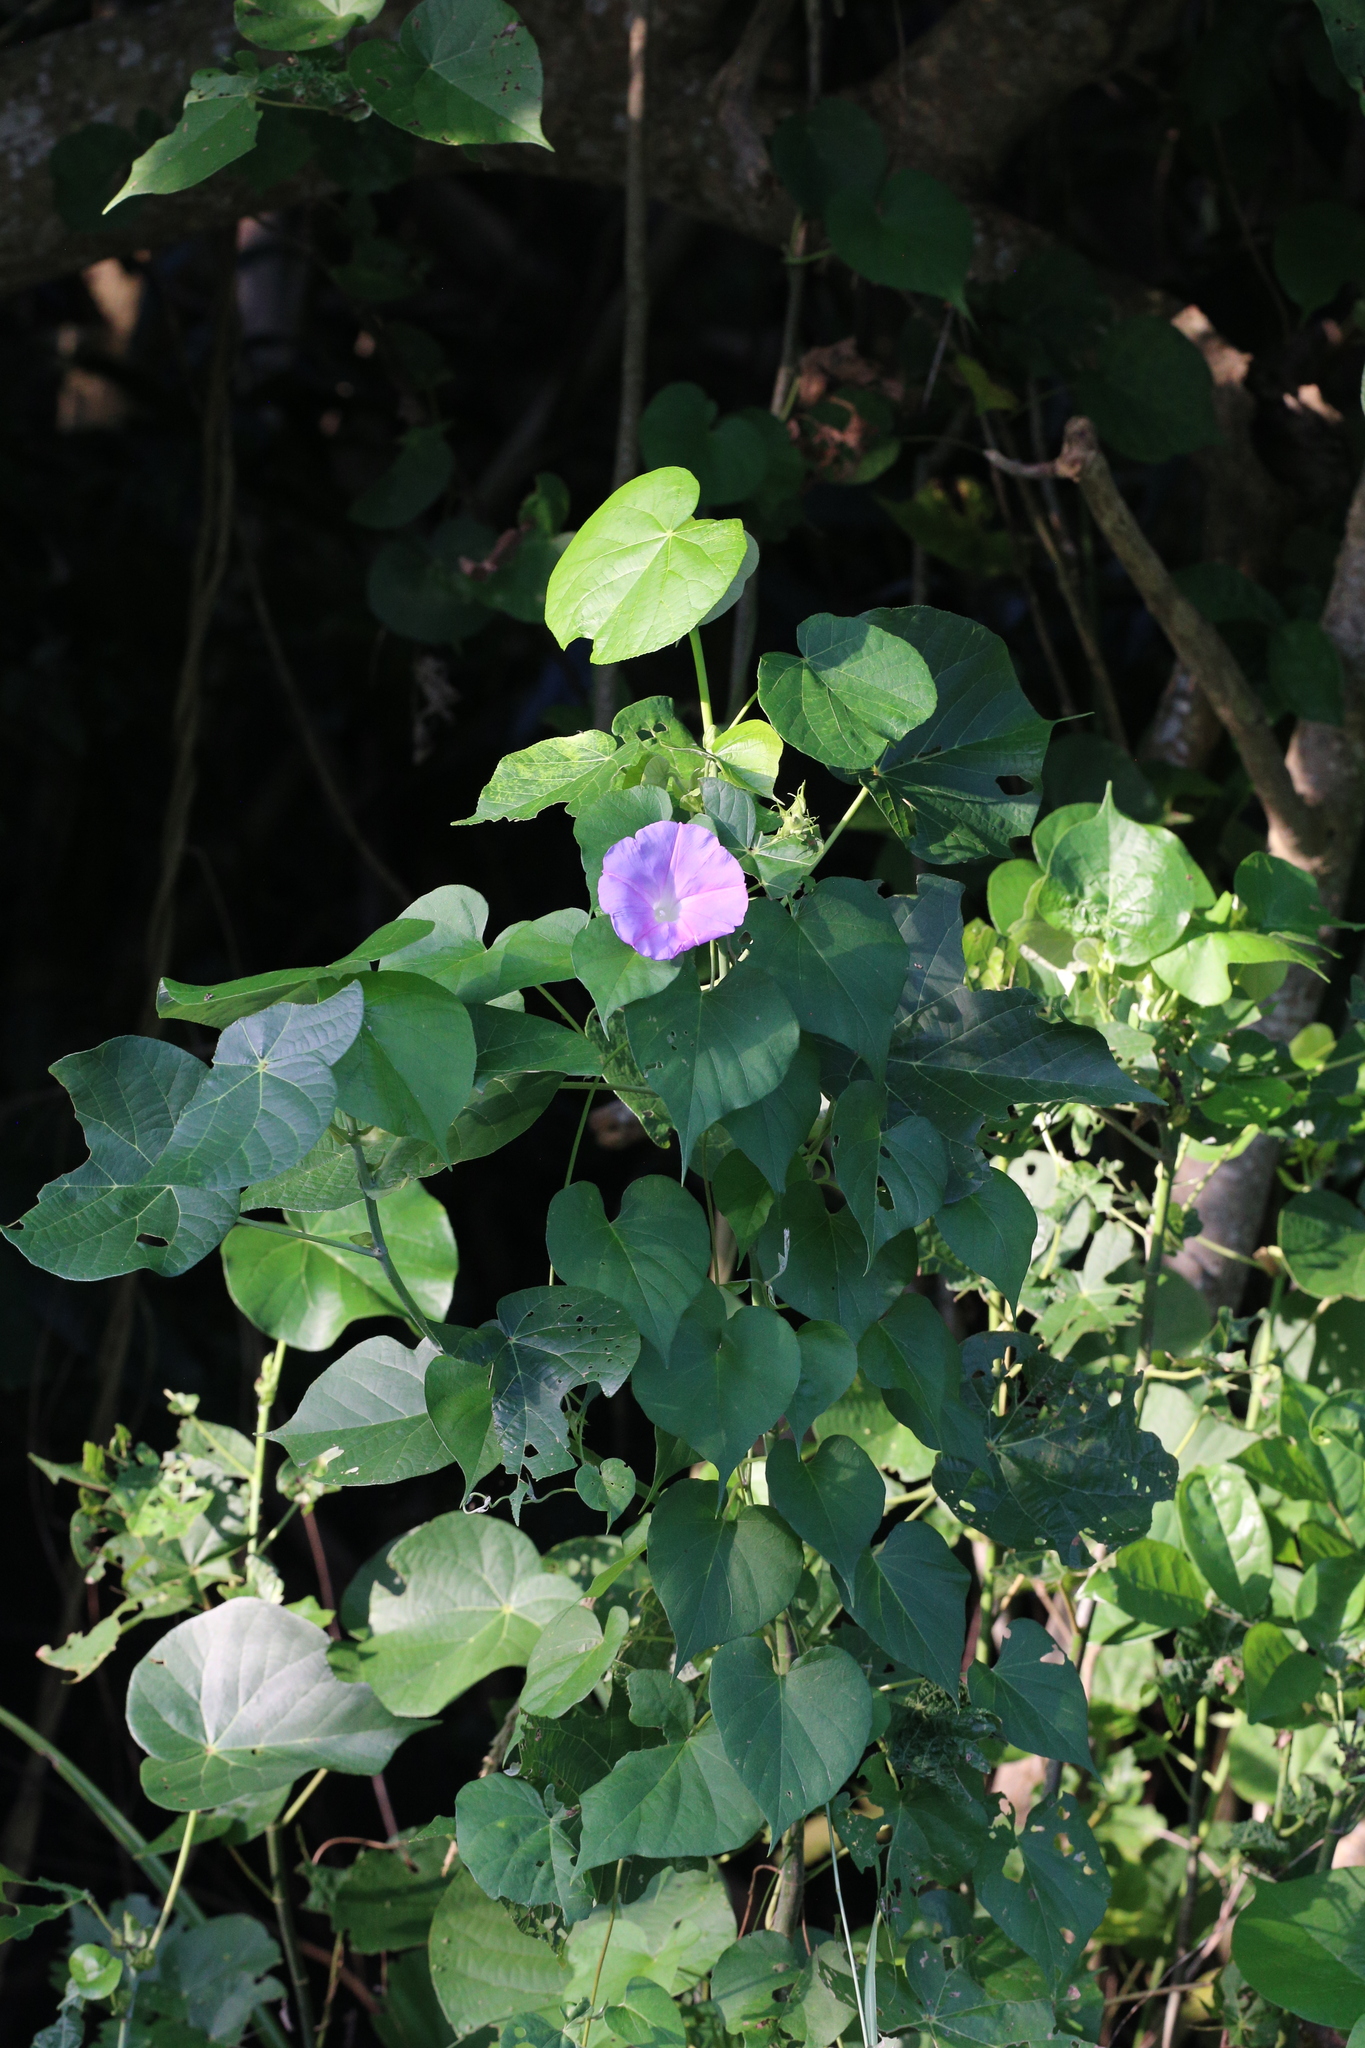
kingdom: Plantae
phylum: Tracheophyta
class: Magnoliopsida
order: Solanales
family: Convolvulaceae
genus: Ipomoea
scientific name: Ipomoea indica
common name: Blue dawnflower
